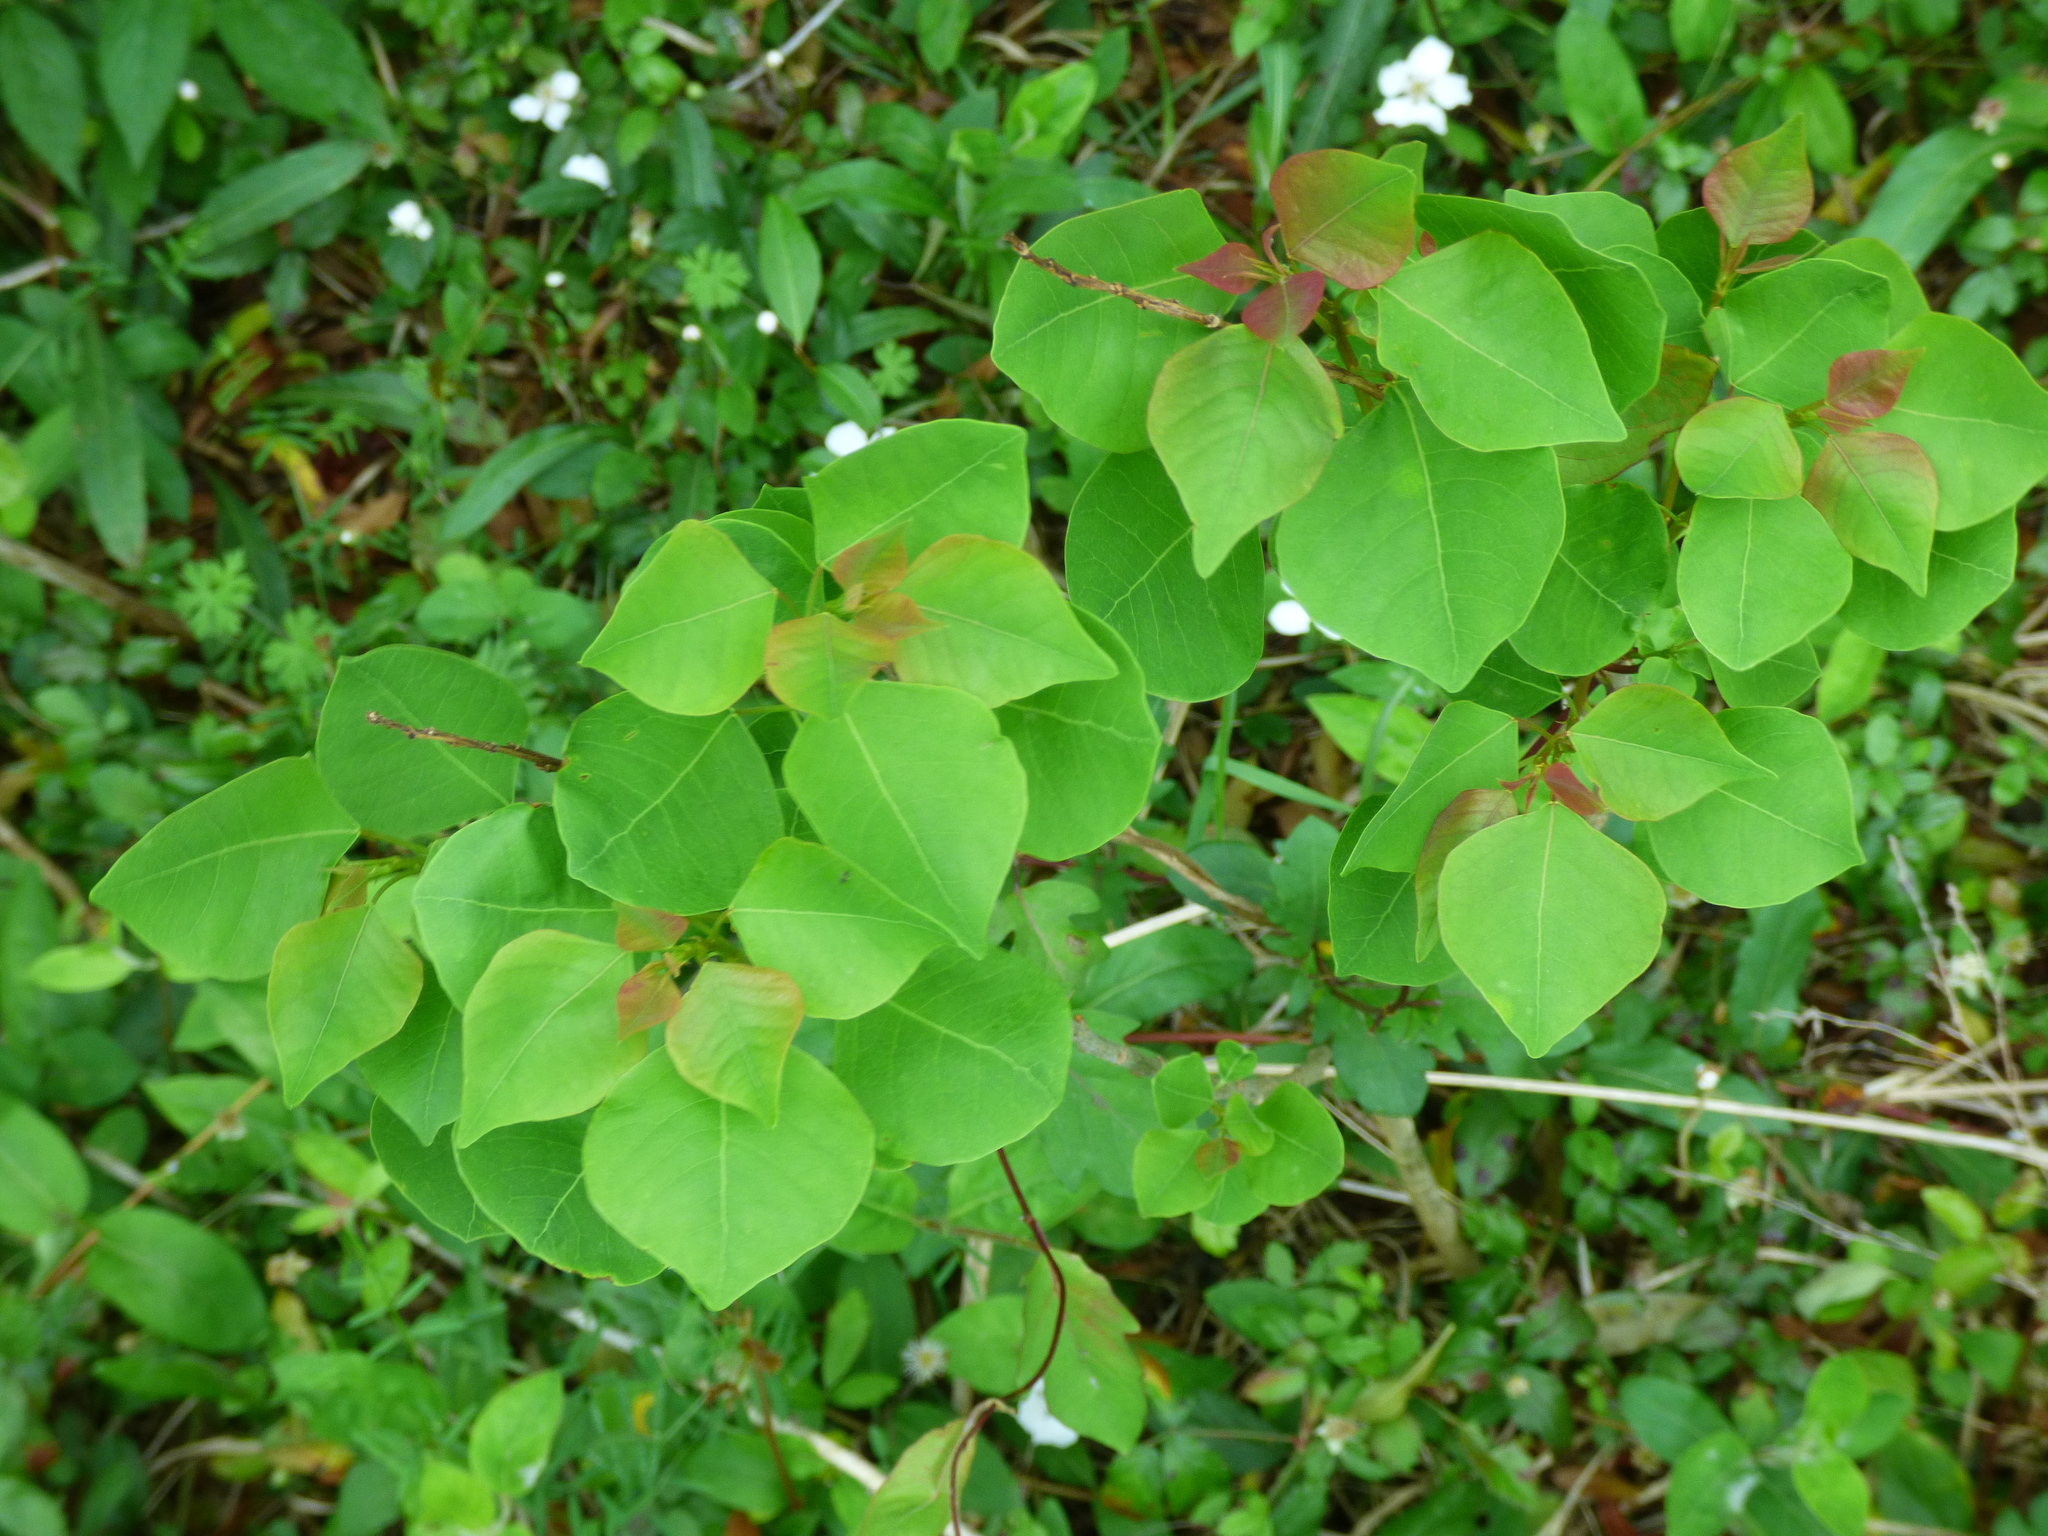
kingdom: Plantae
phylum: Tracheophyta
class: Magnoliopsida
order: Malpighiales
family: Euphorbiaceae
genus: Triadica
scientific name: Triadica sebifera
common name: Chinese tallow
